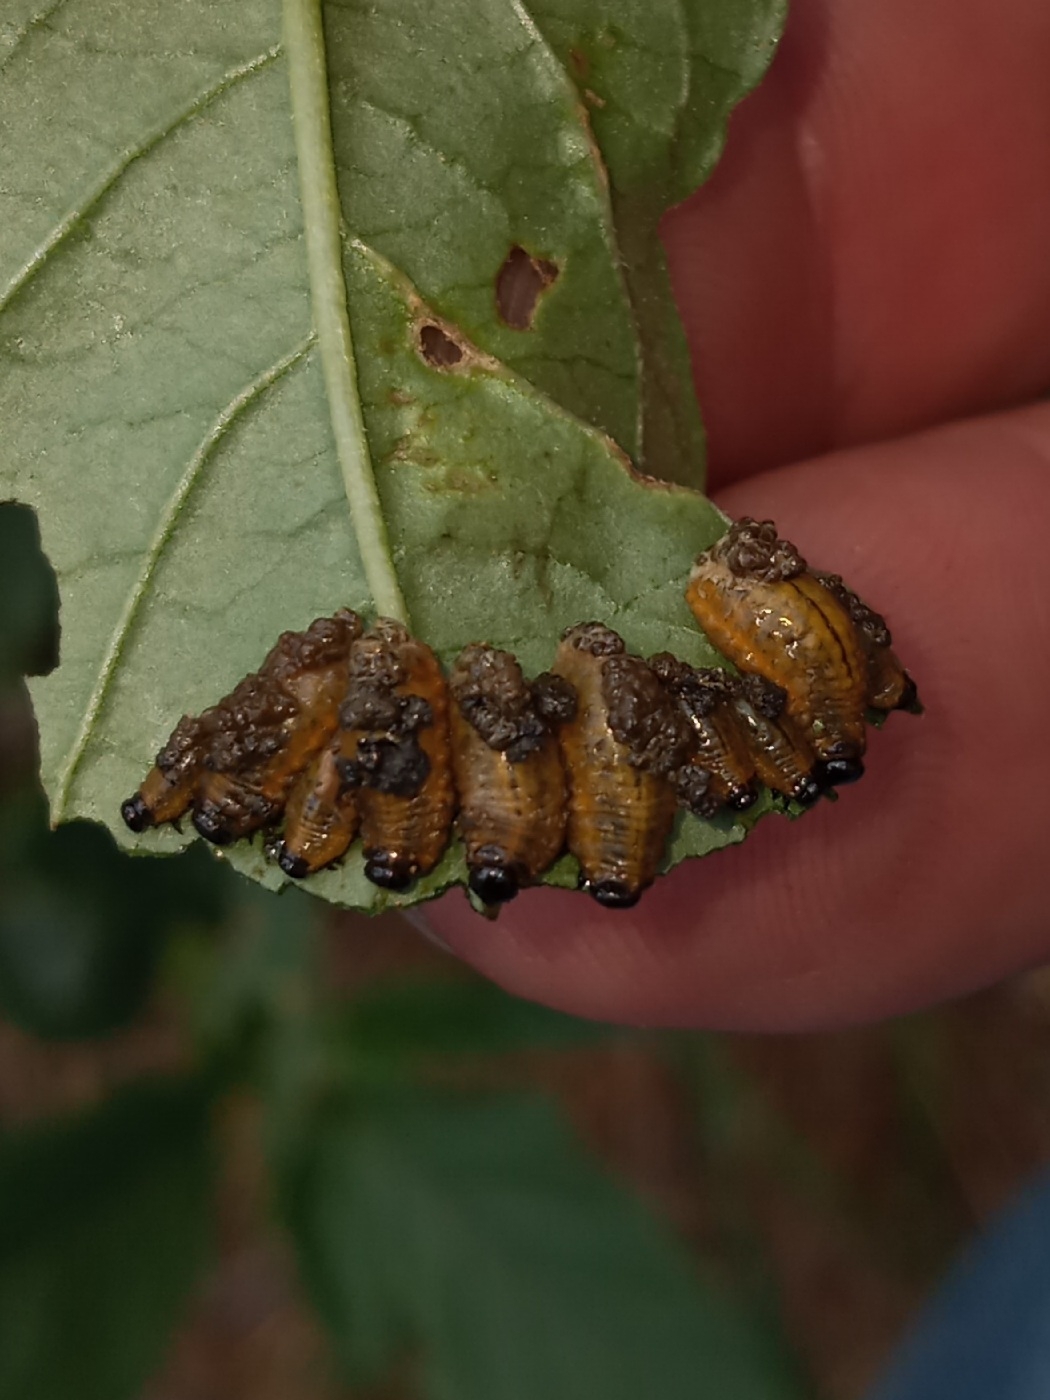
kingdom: Animalia
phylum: Arthropoda
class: Insecta
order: Coleoptera
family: Chrysomelidae
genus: Lema
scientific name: Lema daturaphila
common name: Leaf beetle
